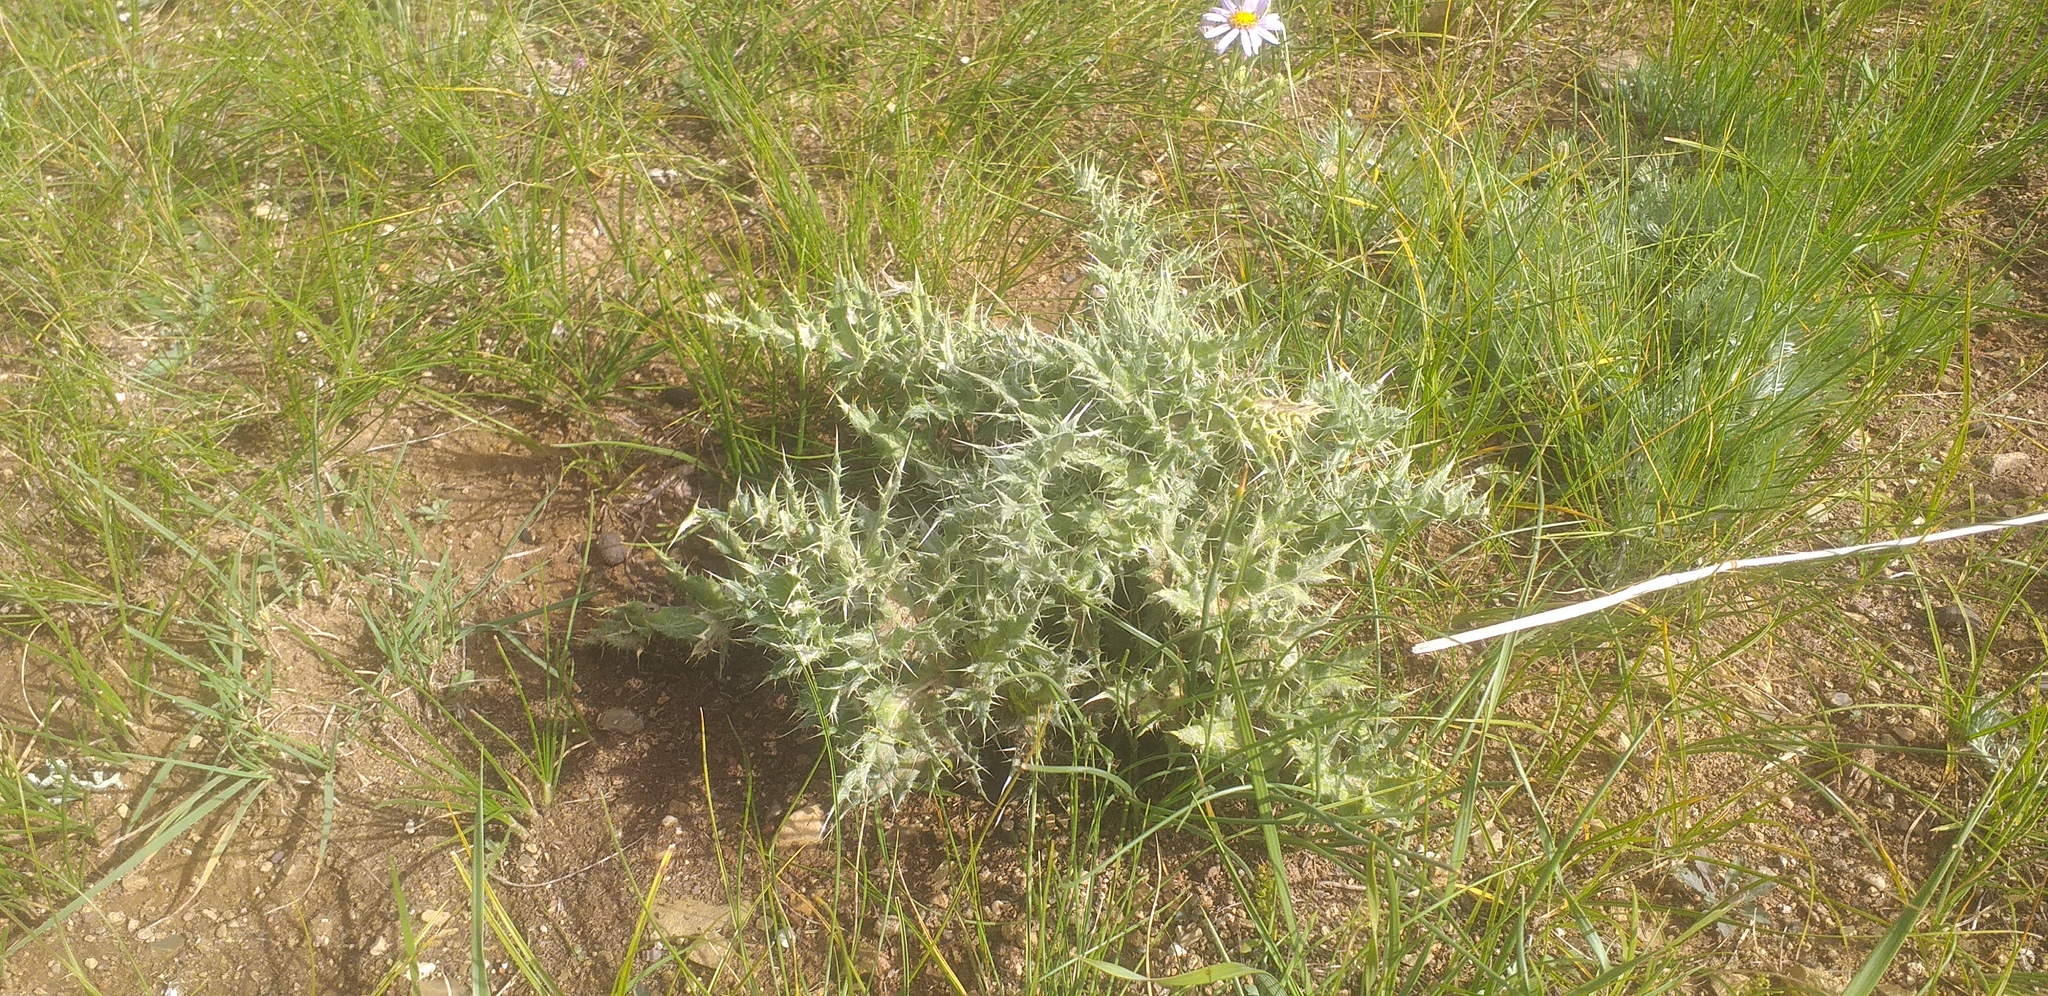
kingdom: Plantae
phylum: Tracheophyta
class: Magnoliopsida
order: Asterales
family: Asteraceae
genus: Echinops
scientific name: Echinops davuricus
